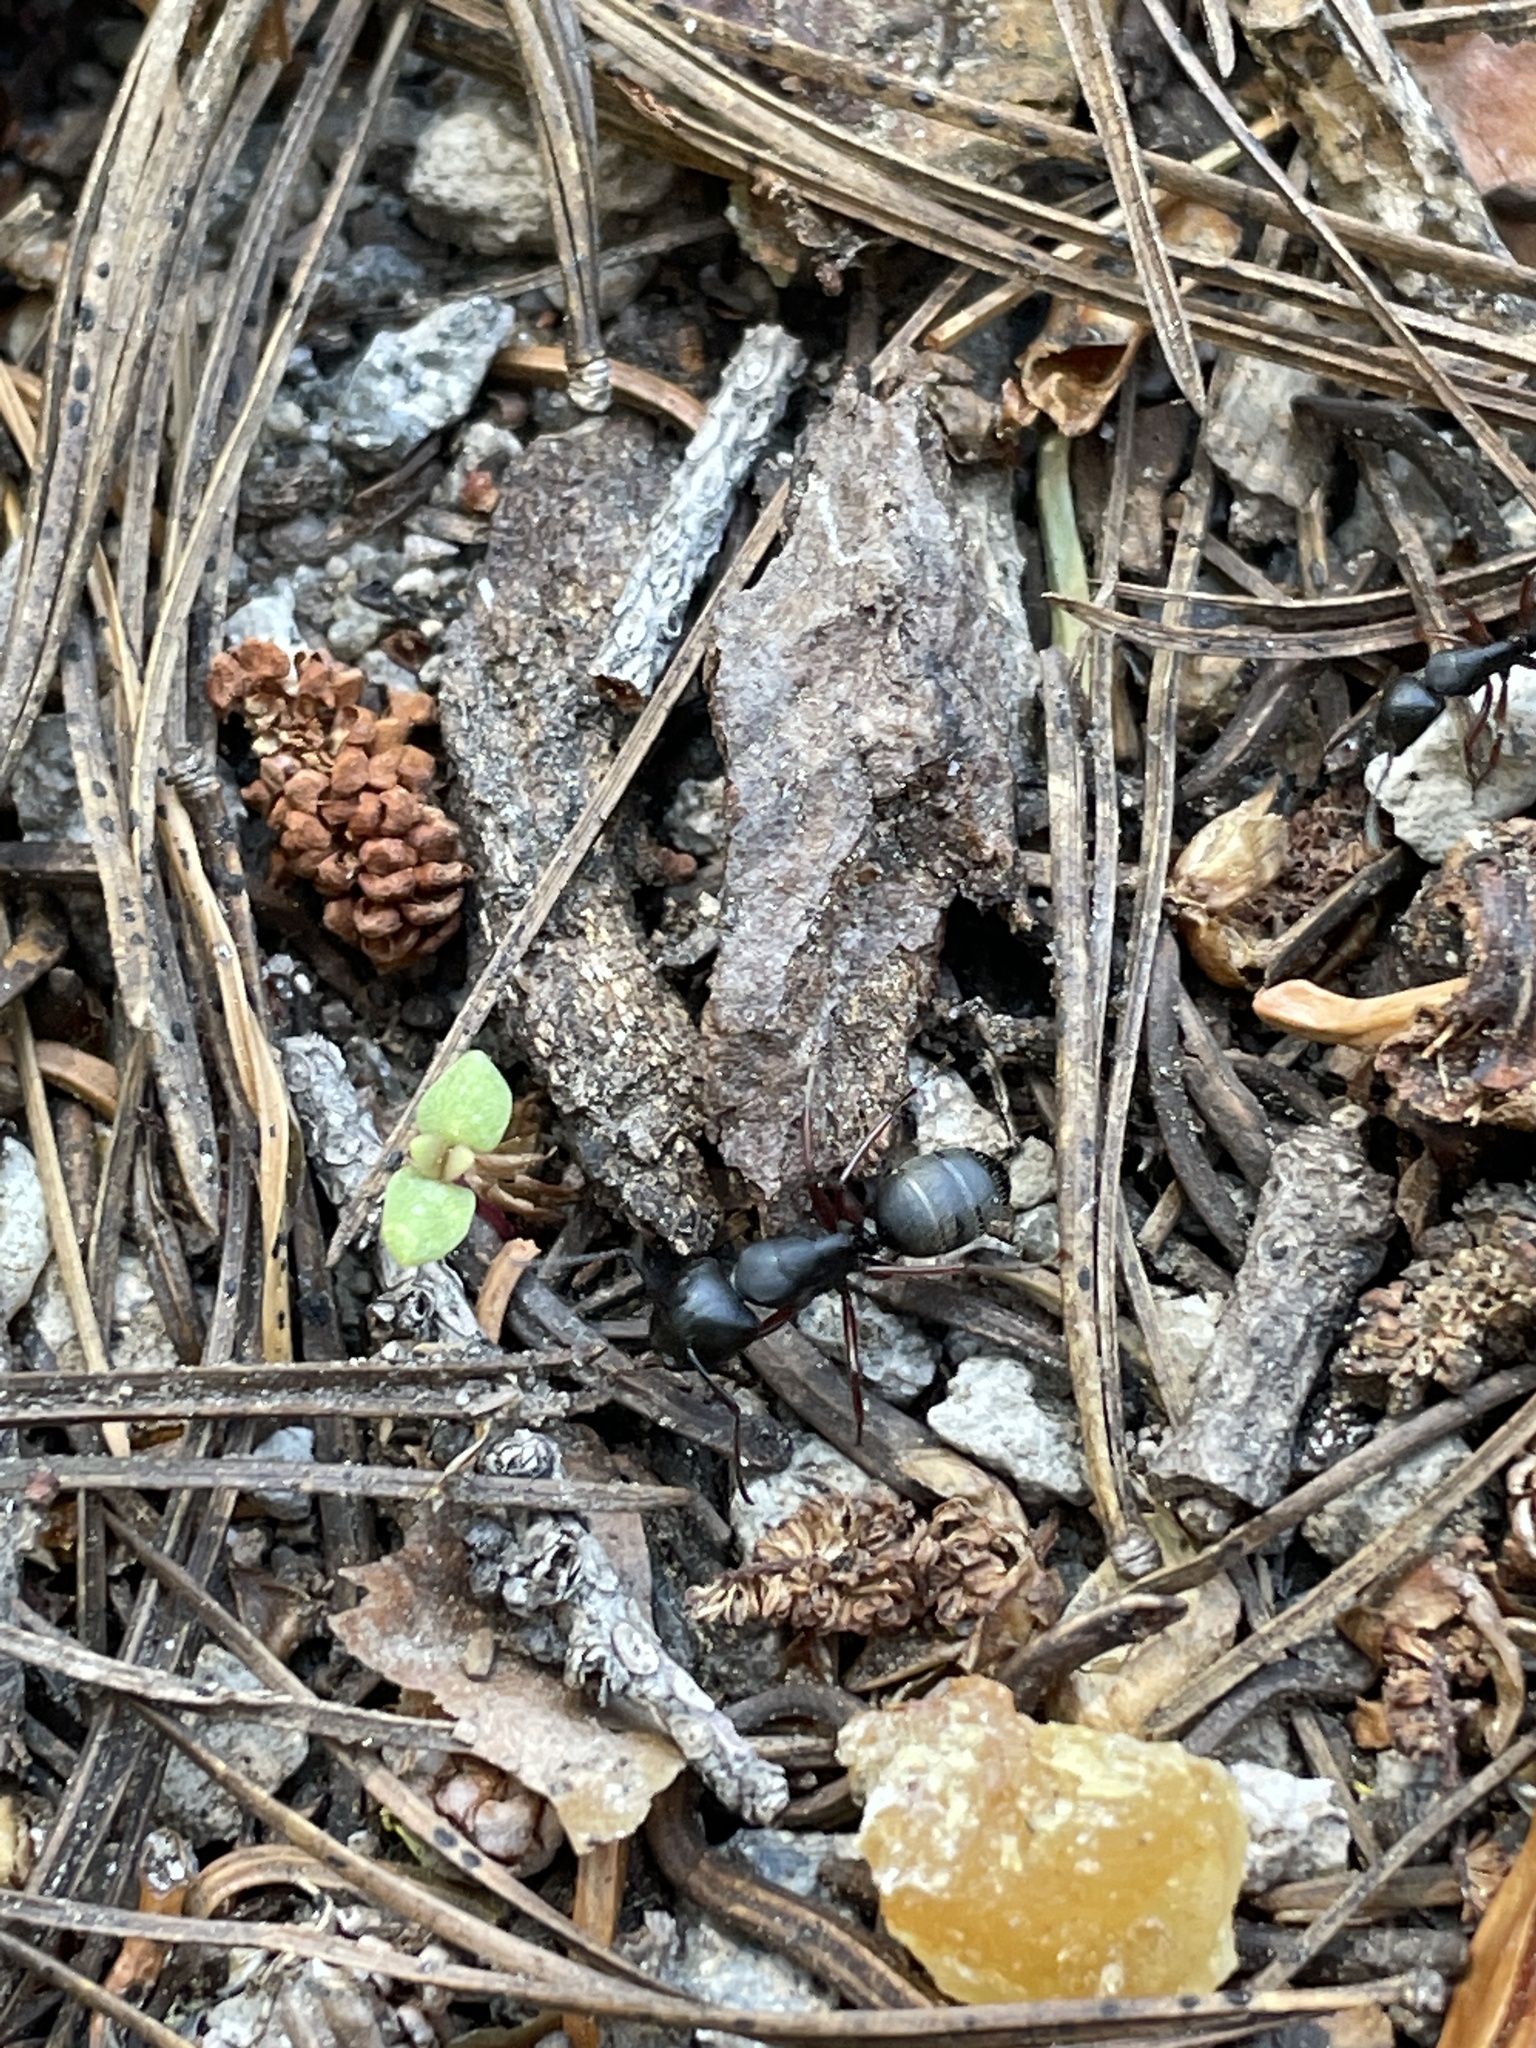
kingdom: Animalia
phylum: Arthropoda
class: Insecta
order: Hymenoptera
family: Formicidae
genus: Camponotus
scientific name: Camponotus modoc
